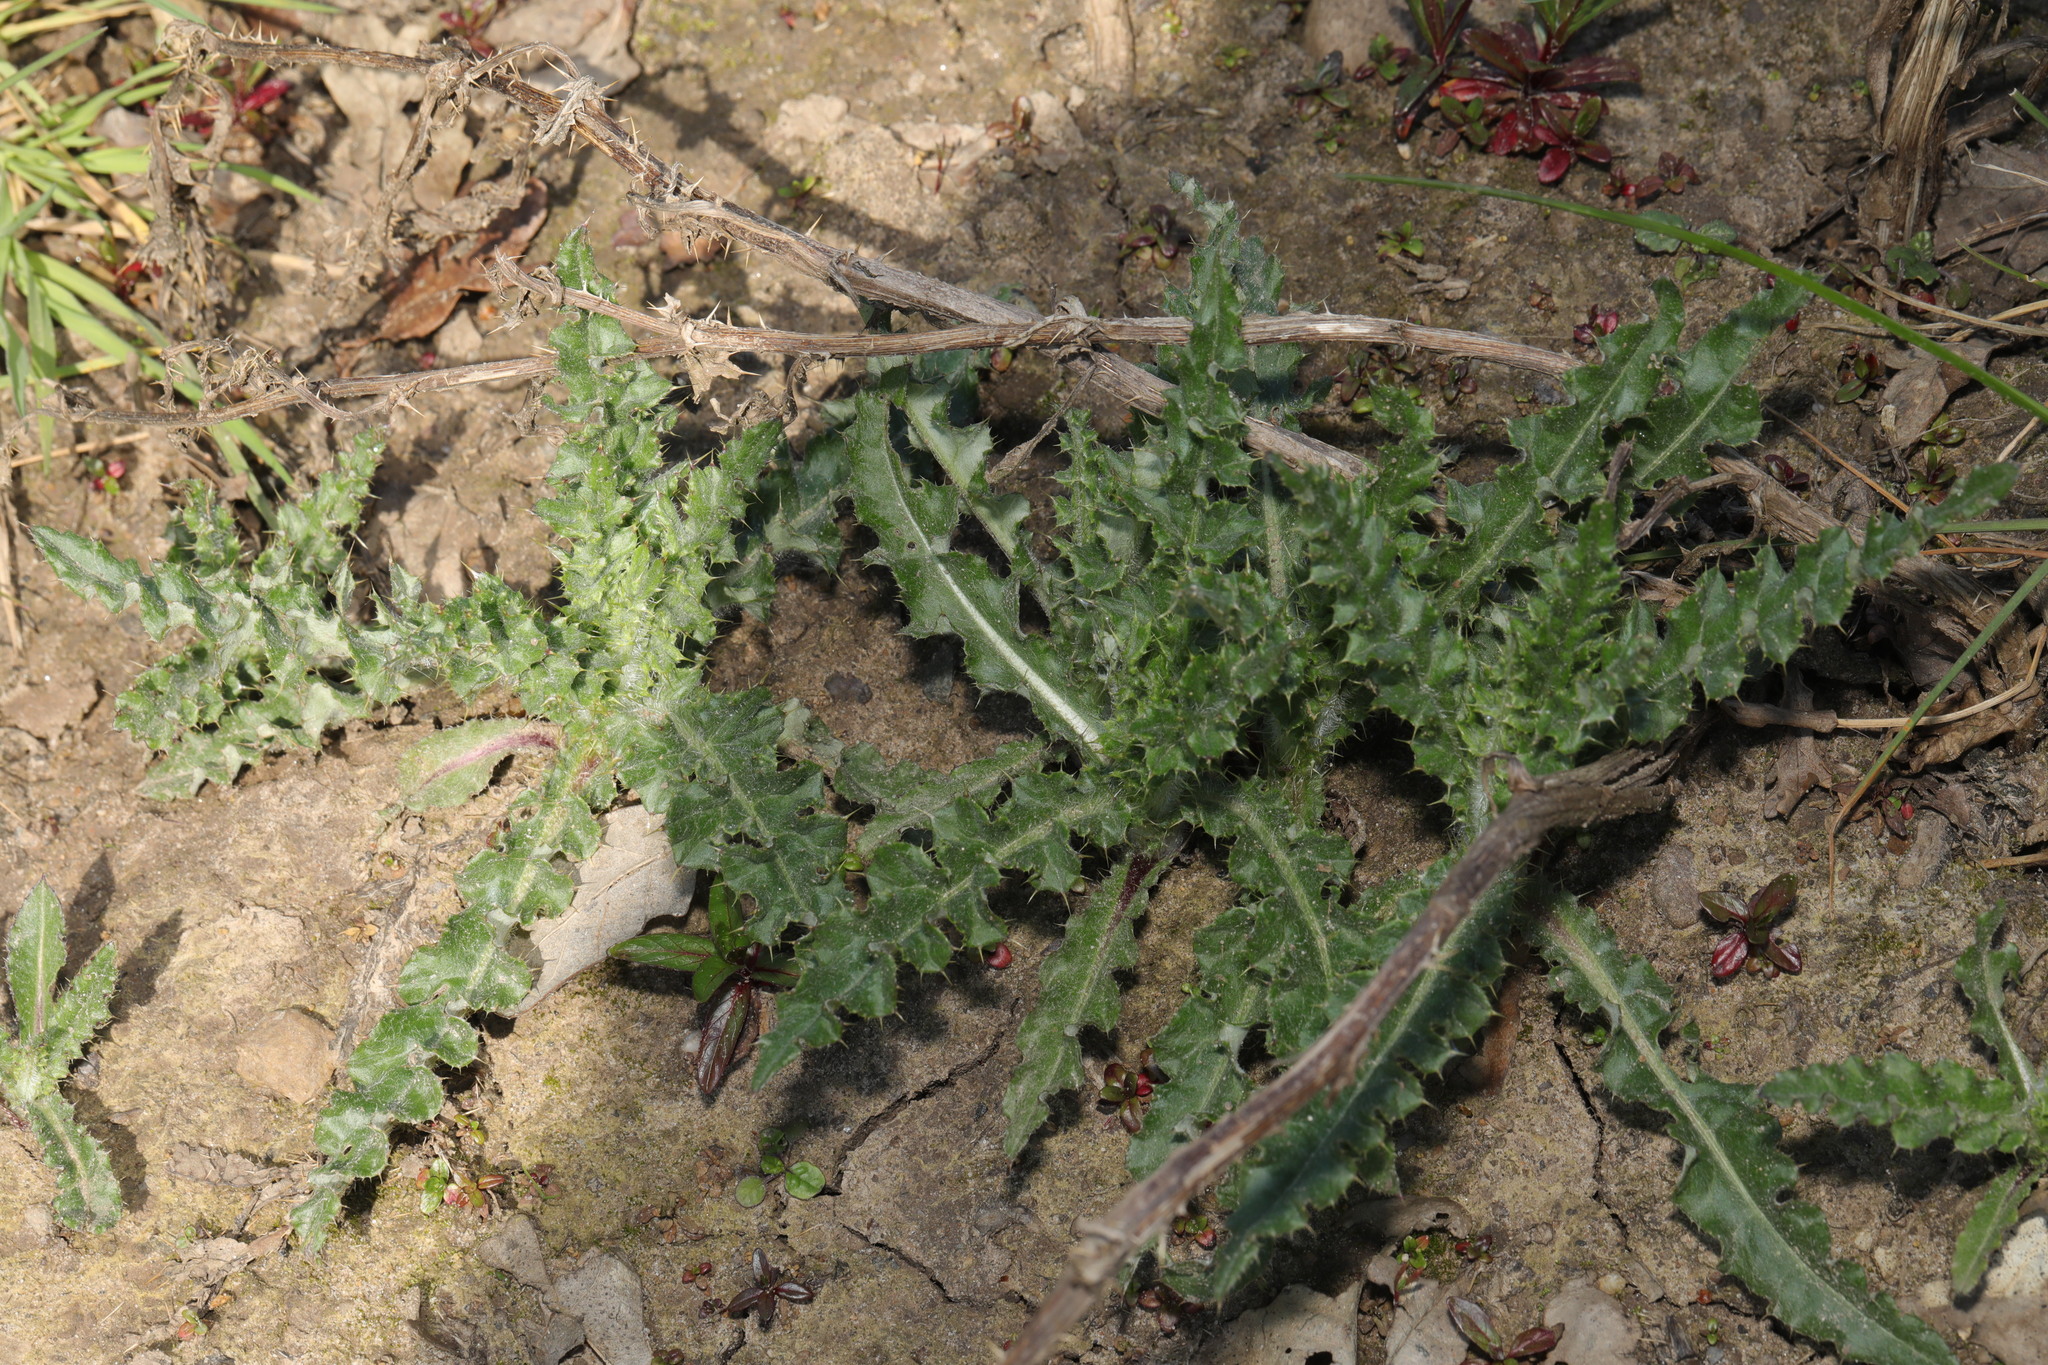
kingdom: Plantae
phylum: Tracheophyta
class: Magnoliopsida
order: Asterales
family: Asteraceae
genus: Cirsium
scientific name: Cirsium arvense
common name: Creeping thistle
